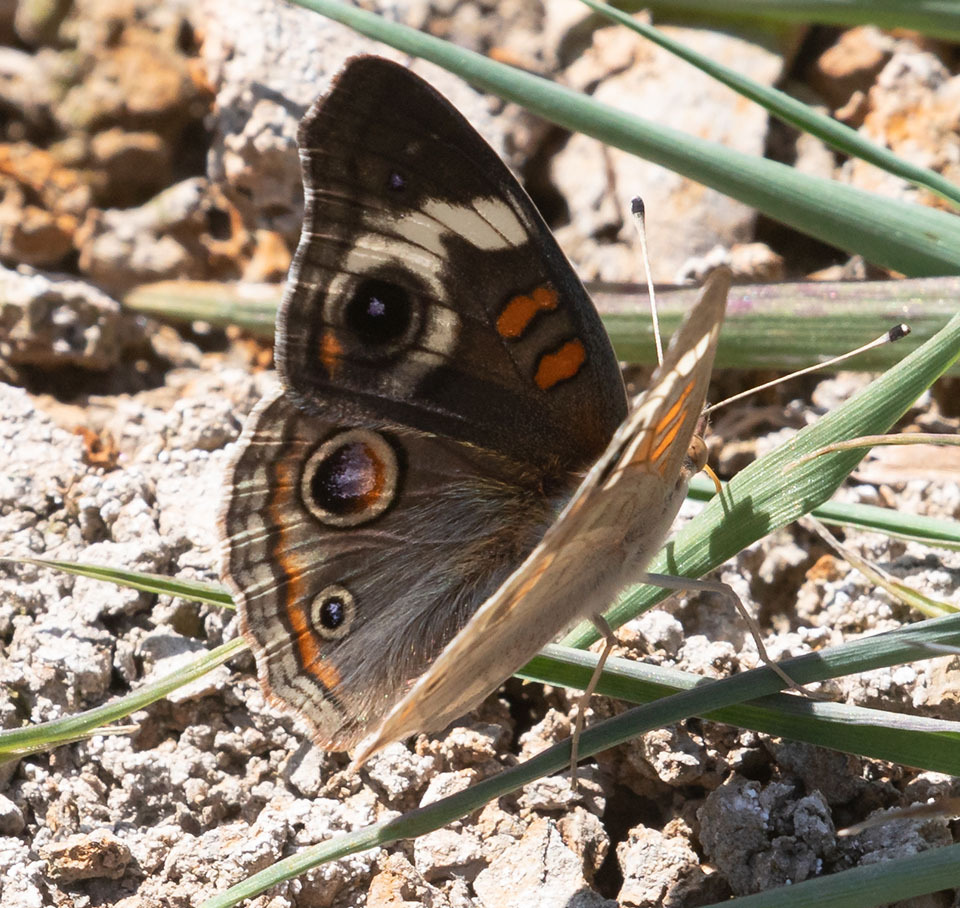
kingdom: Animalia
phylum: Arthropoda
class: Insecta
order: Lepidoptera
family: Nymphalidae
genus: Junonia
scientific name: Junonia grisea
